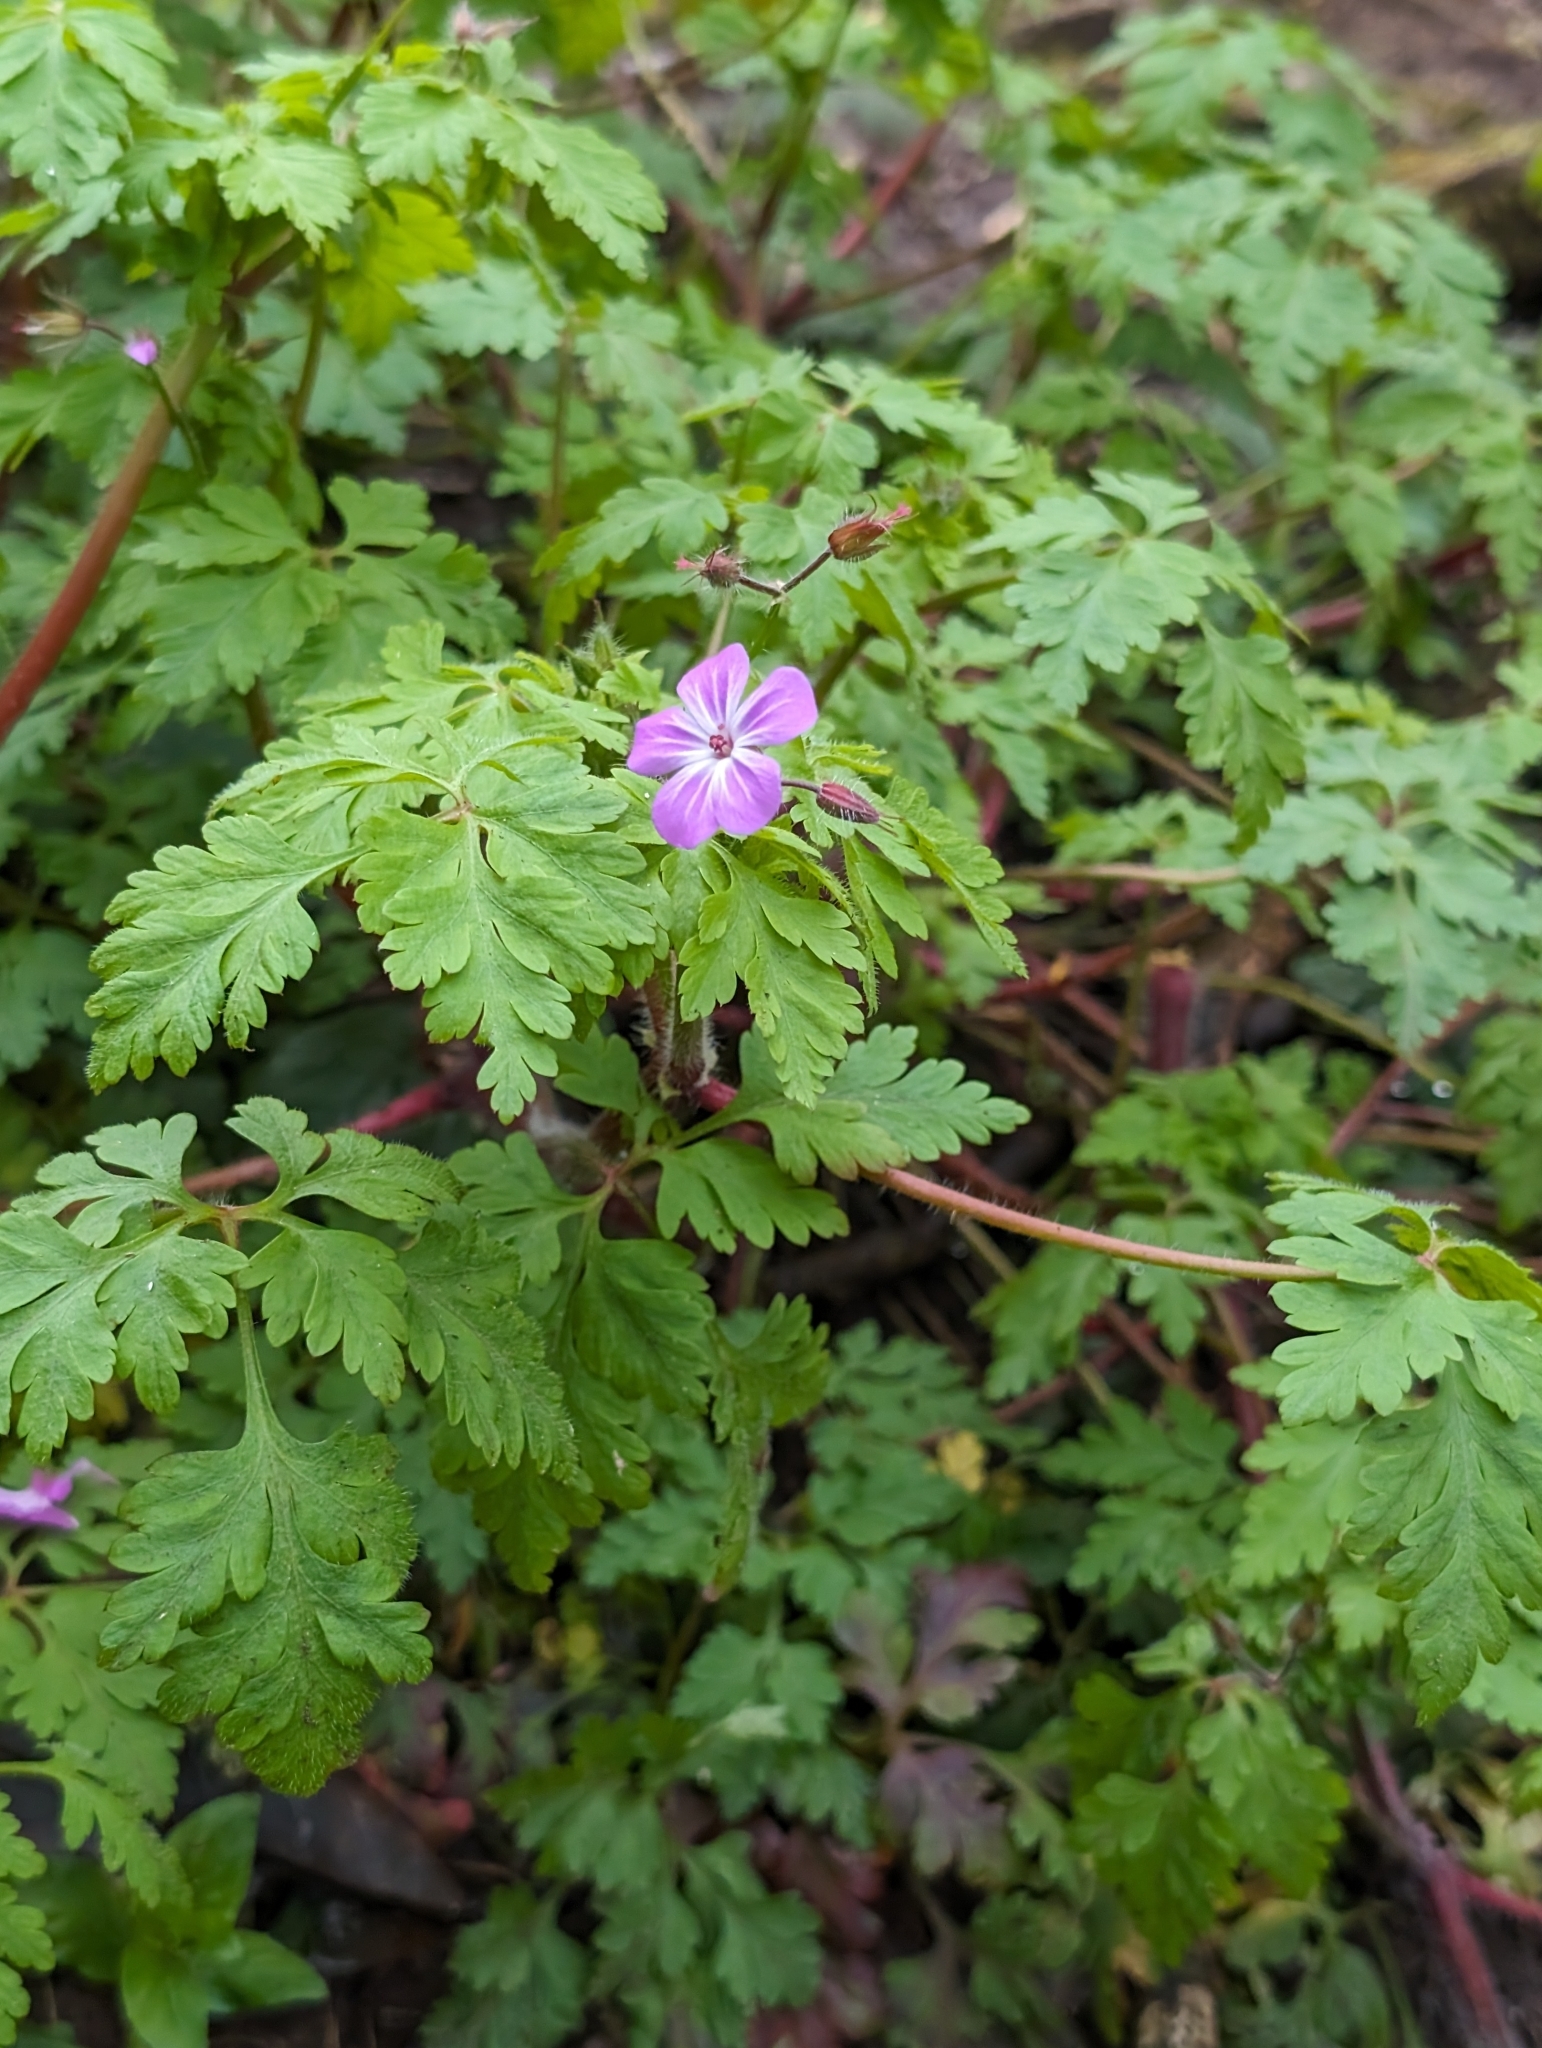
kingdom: Plantae
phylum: Tracheophyta
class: Magnoliopsida
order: Geraniales
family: Geraniaceae
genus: Geranium
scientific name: Geranium robertianum
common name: Herb-robert
